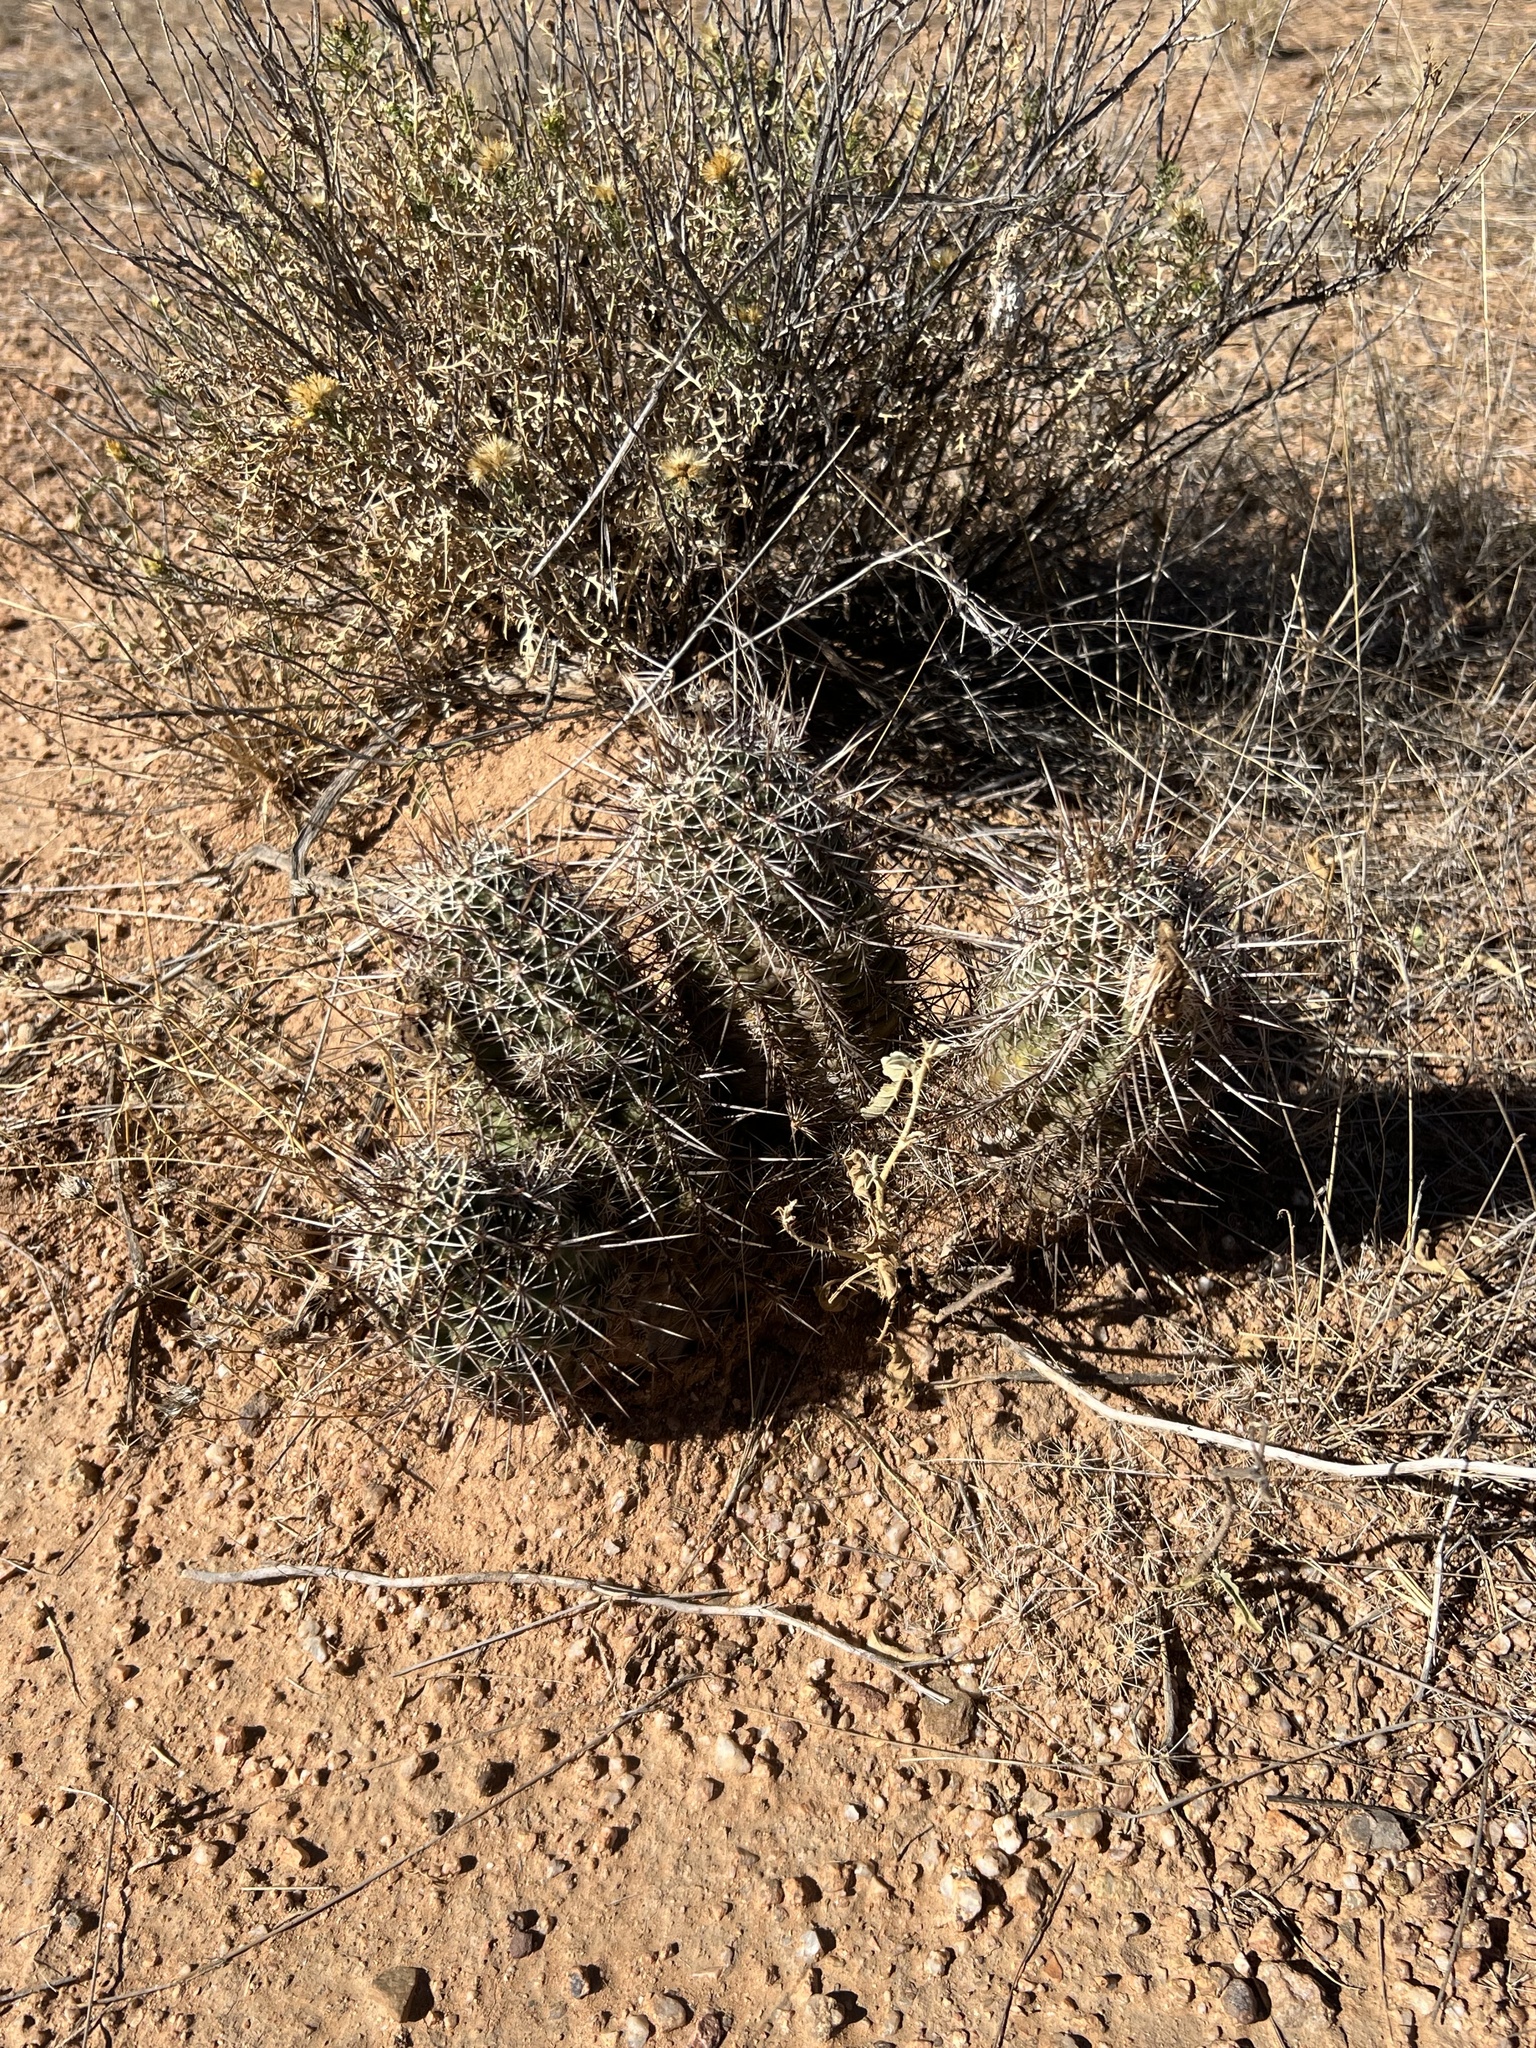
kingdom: Plantae
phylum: Tracheophyta
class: Magnoliopsida
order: Caryophyllales
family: Cactaceae
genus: Echinocereus
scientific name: Echinocereus fasciculatus
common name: Bundle hedgehog
